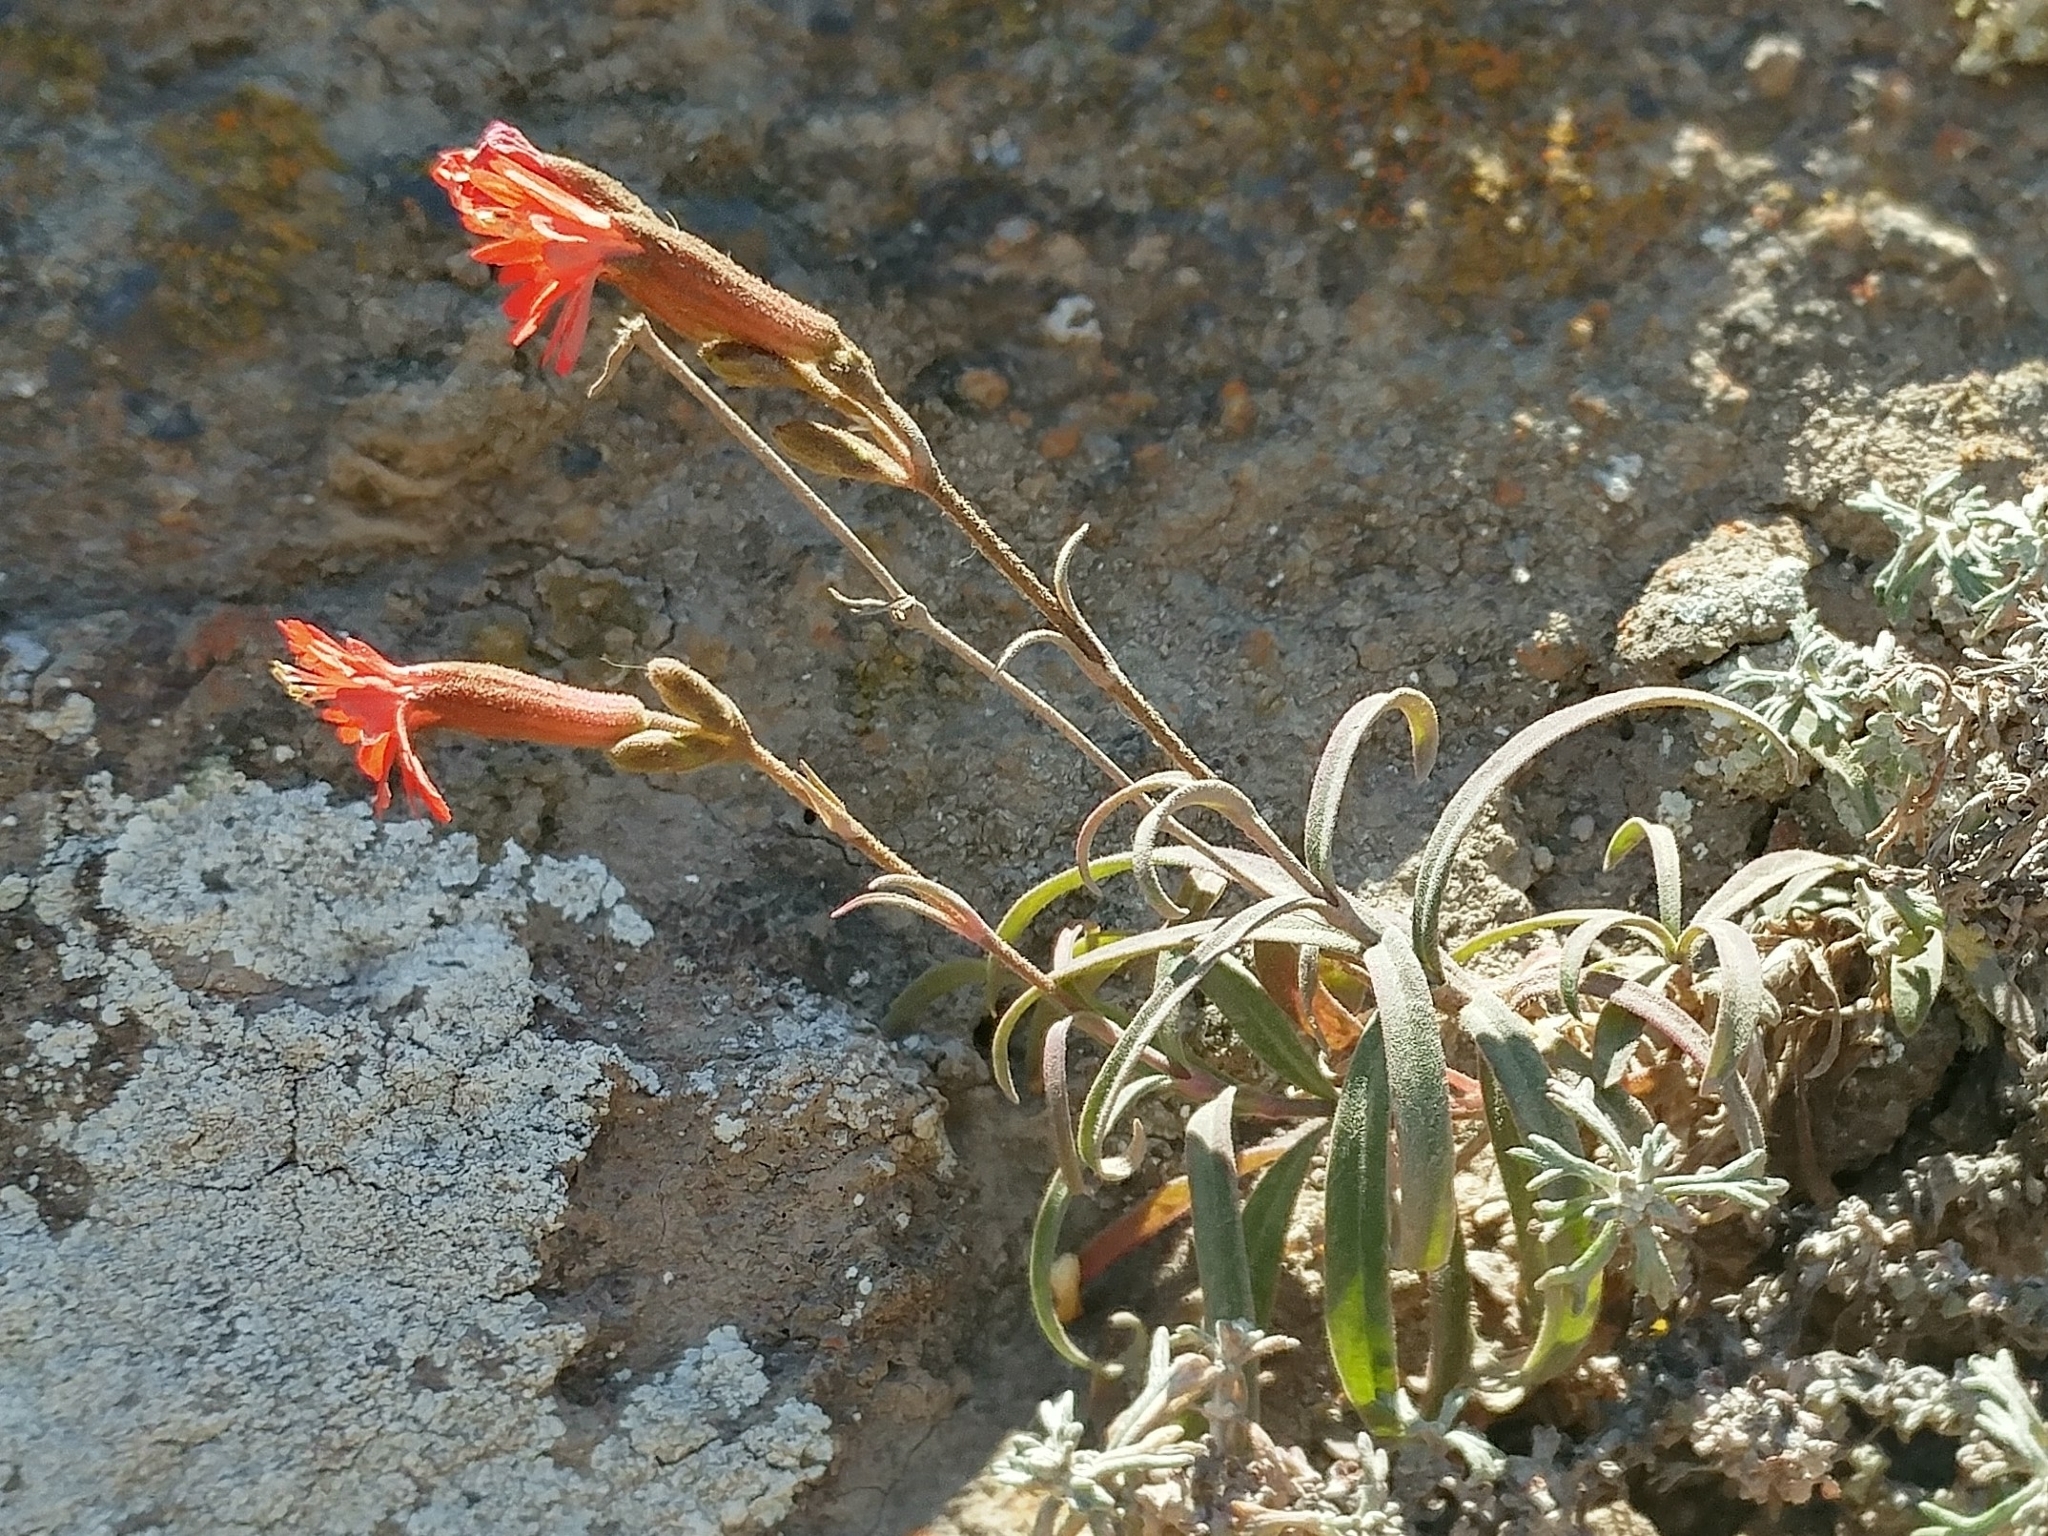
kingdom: Plantae
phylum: Tracheophyta
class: Magnoliopsida
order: Caryophyllales
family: Caryophyllaceae
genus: Silene
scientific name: Silene laciniata
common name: Indian-pink
